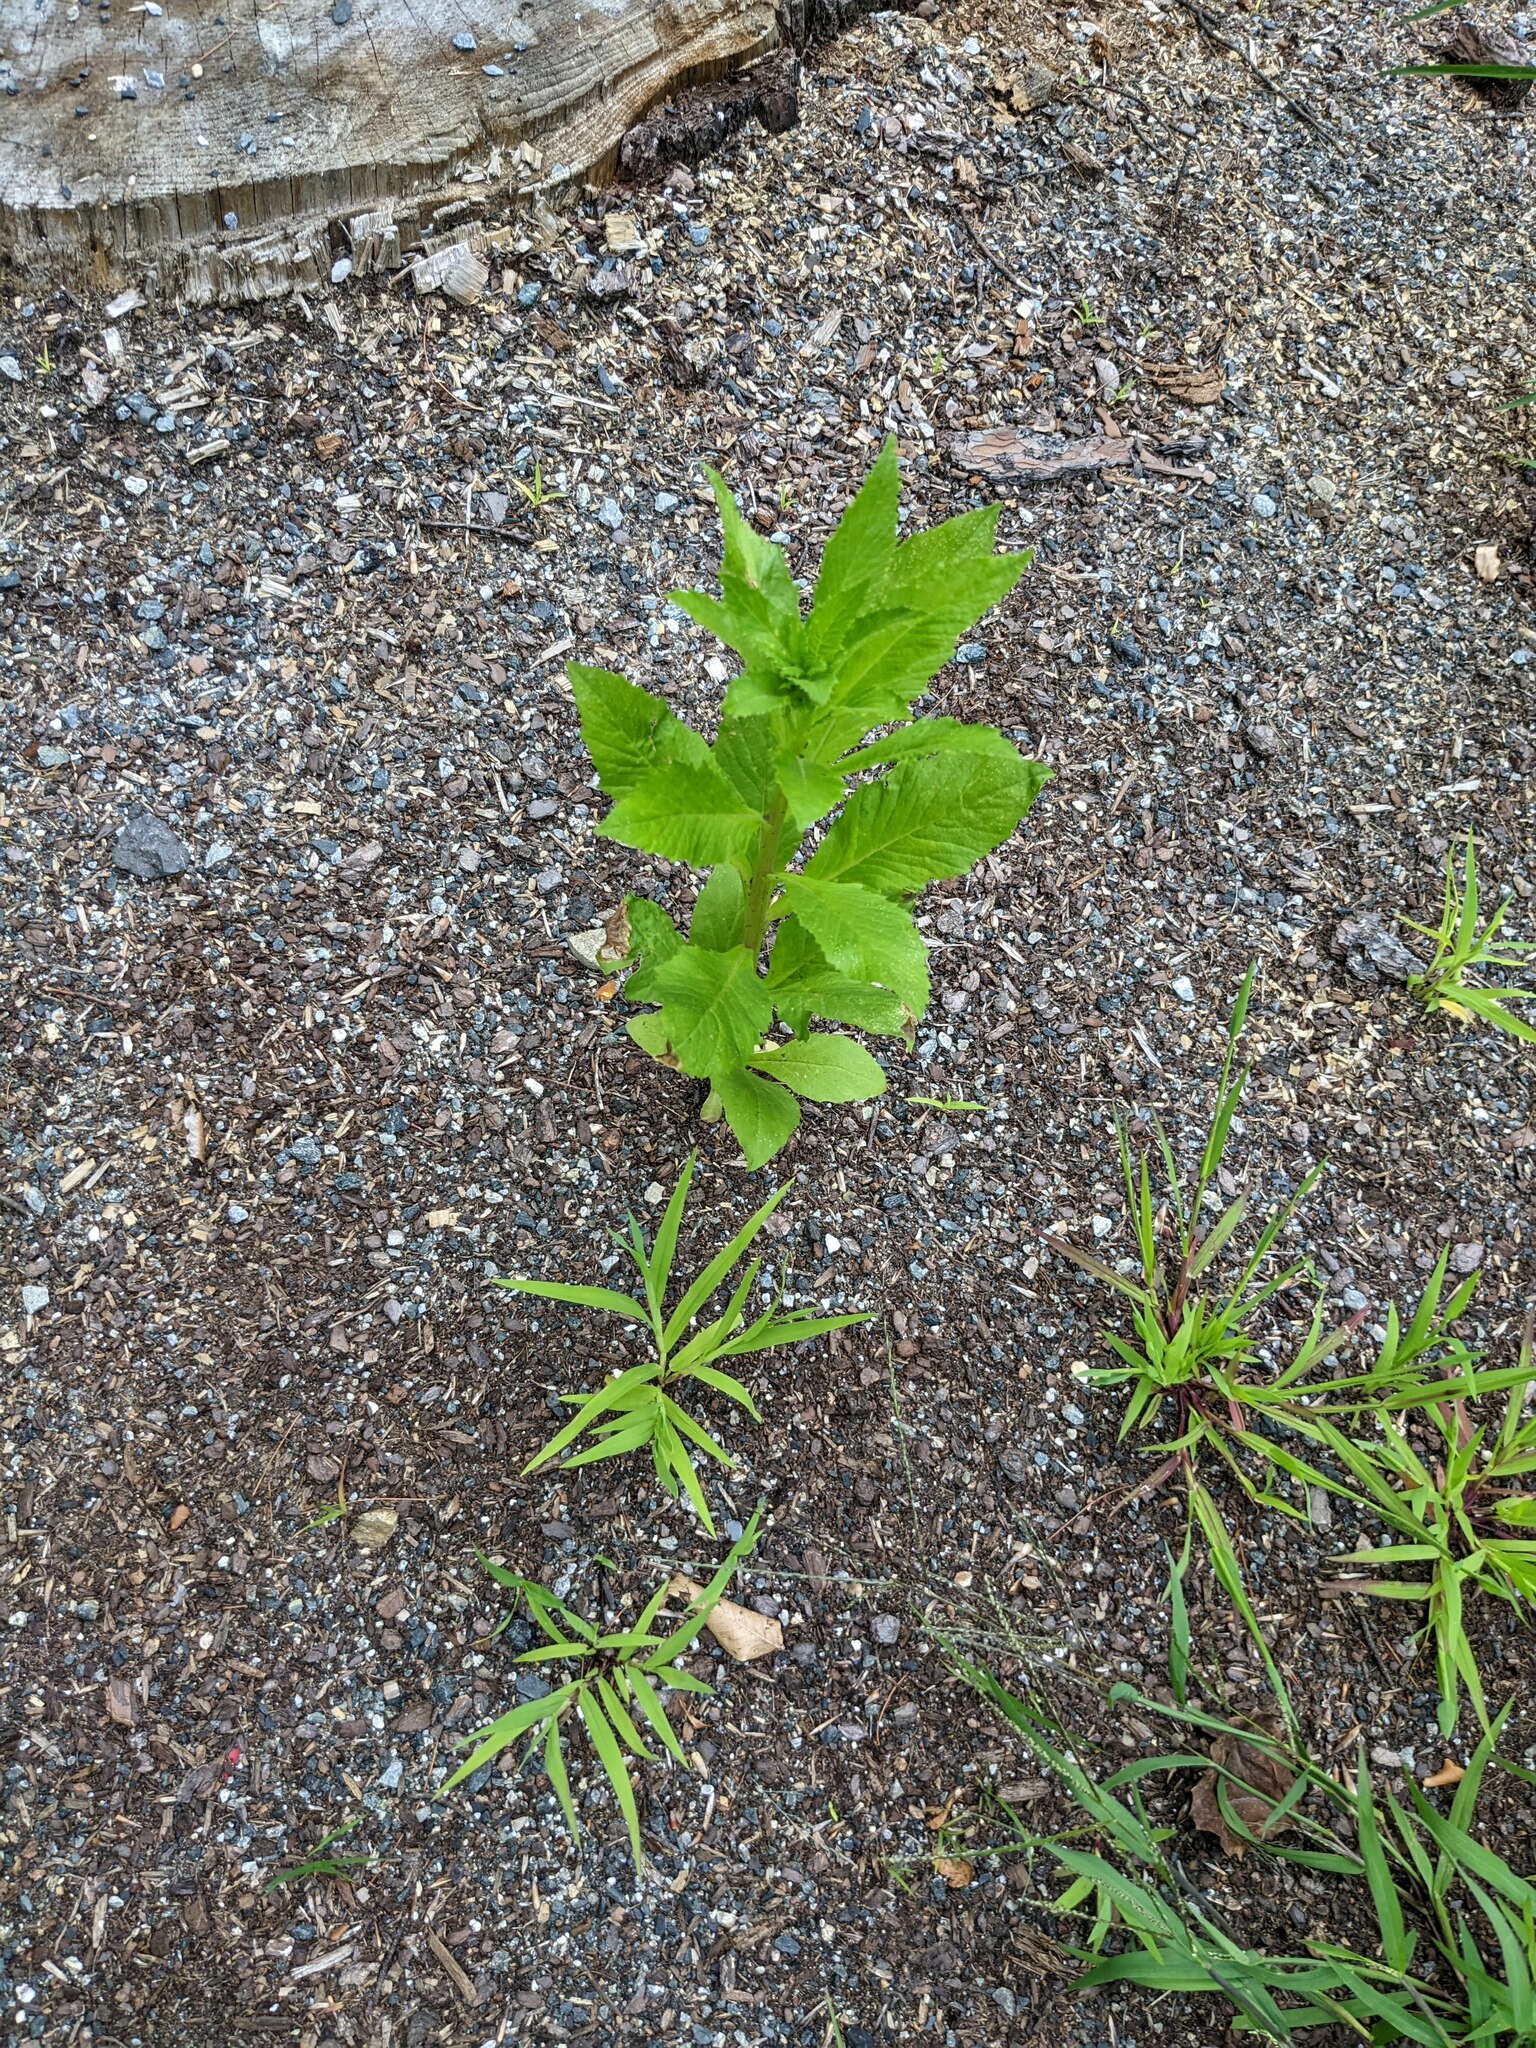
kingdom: Plantae
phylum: Tracheophyta
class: Magnoliopsida
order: Asterales
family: Asteraceae
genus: Erechtites
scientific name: Erechtites hieraciifolius
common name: American burnweed
